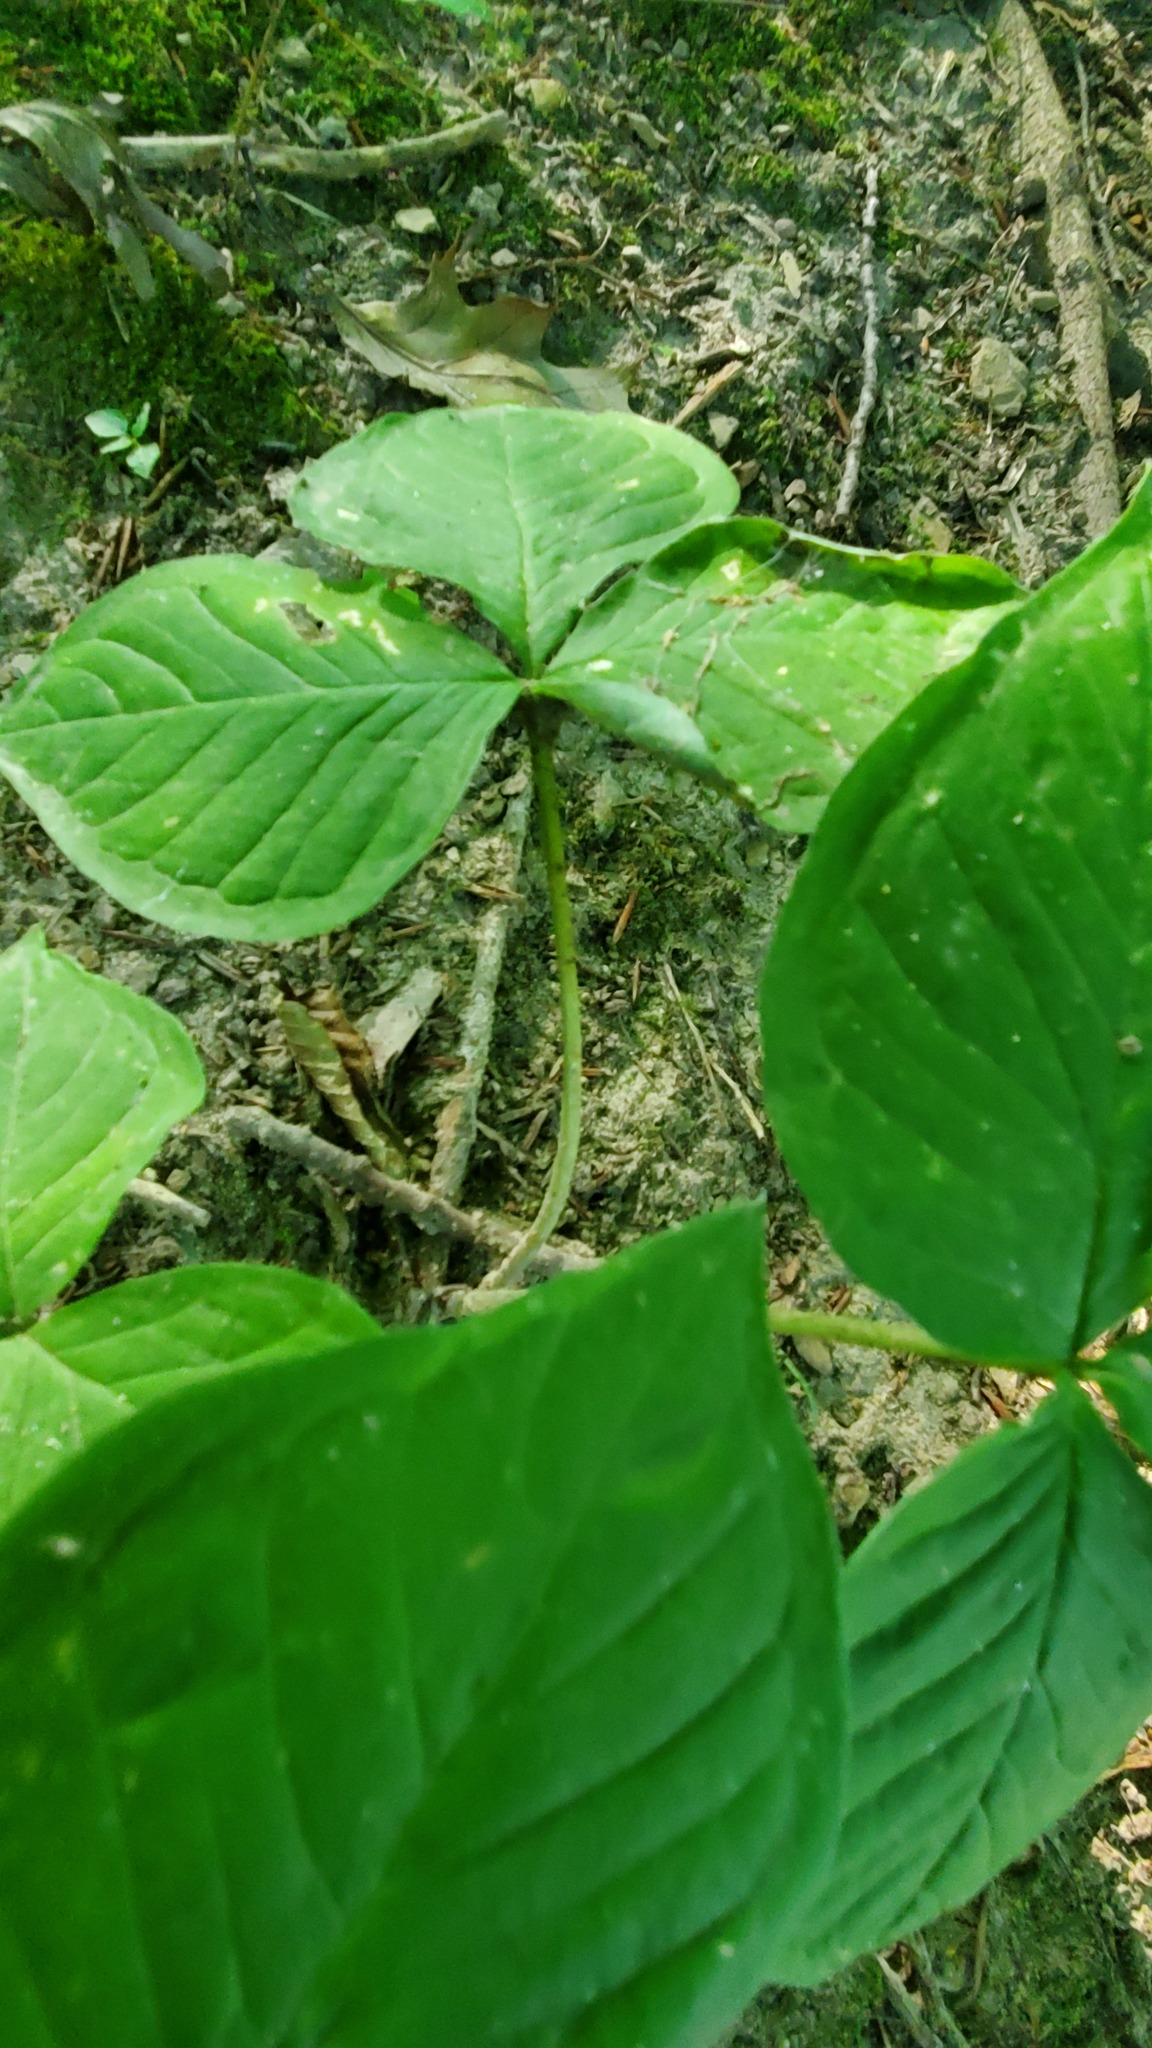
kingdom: Plantae
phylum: Tracheophyta
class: Liliopsida
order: Alismatales
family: Araceae
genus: Arisaema
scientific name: Arisaema triphyllum
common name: Jack-in-the-pulpit
